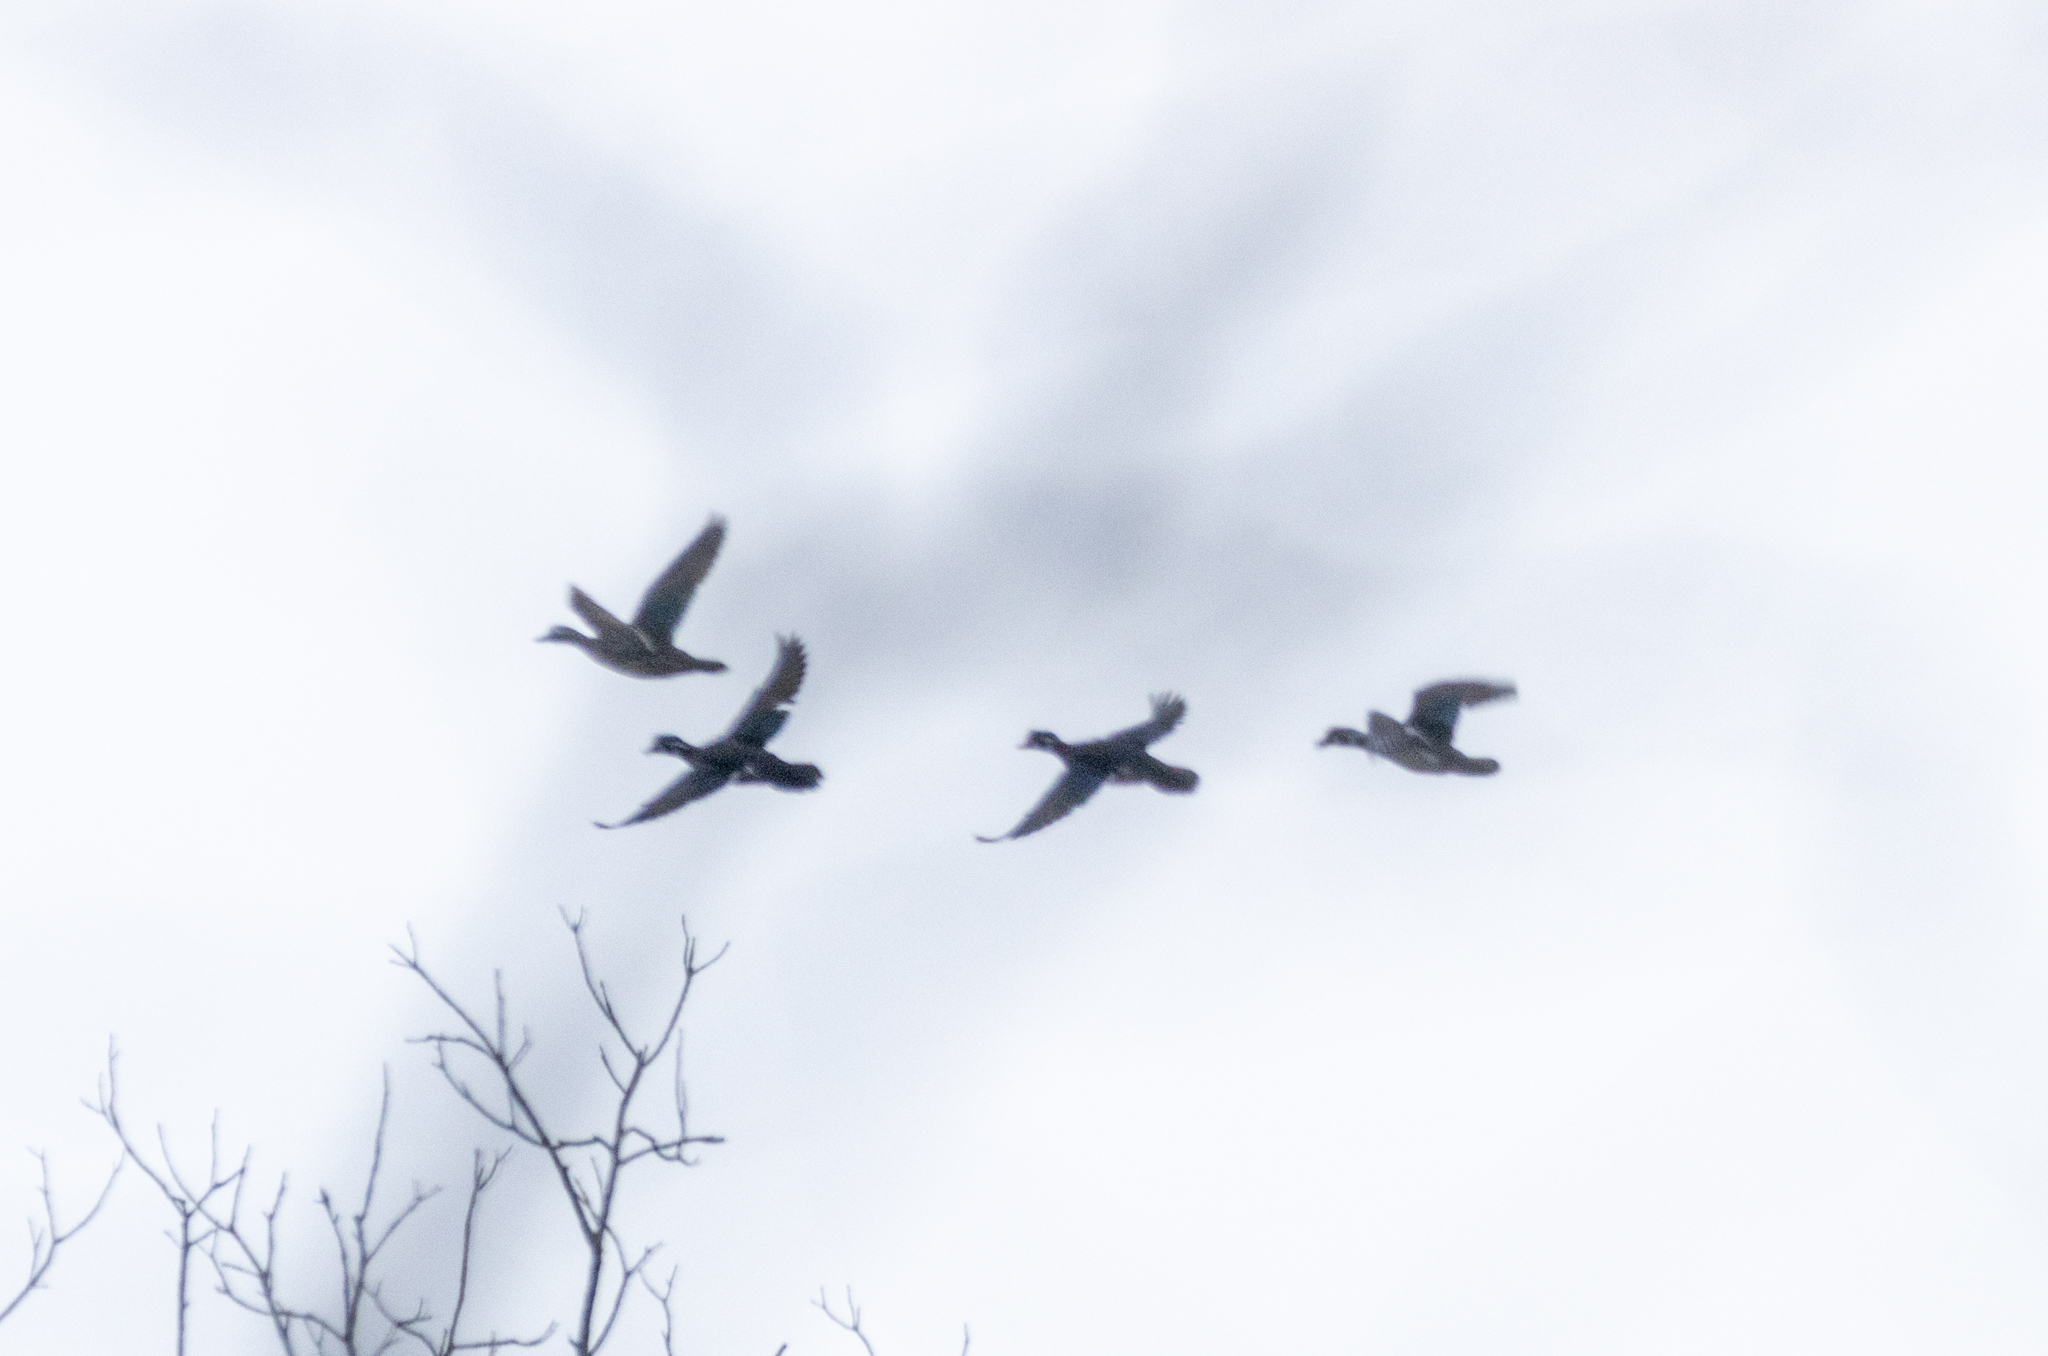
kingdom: Animalia
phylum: Chordata
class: Aves
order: Anseriformes
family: Anatidae
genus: Aix
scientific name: Aix sponsa
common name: Wood duck
